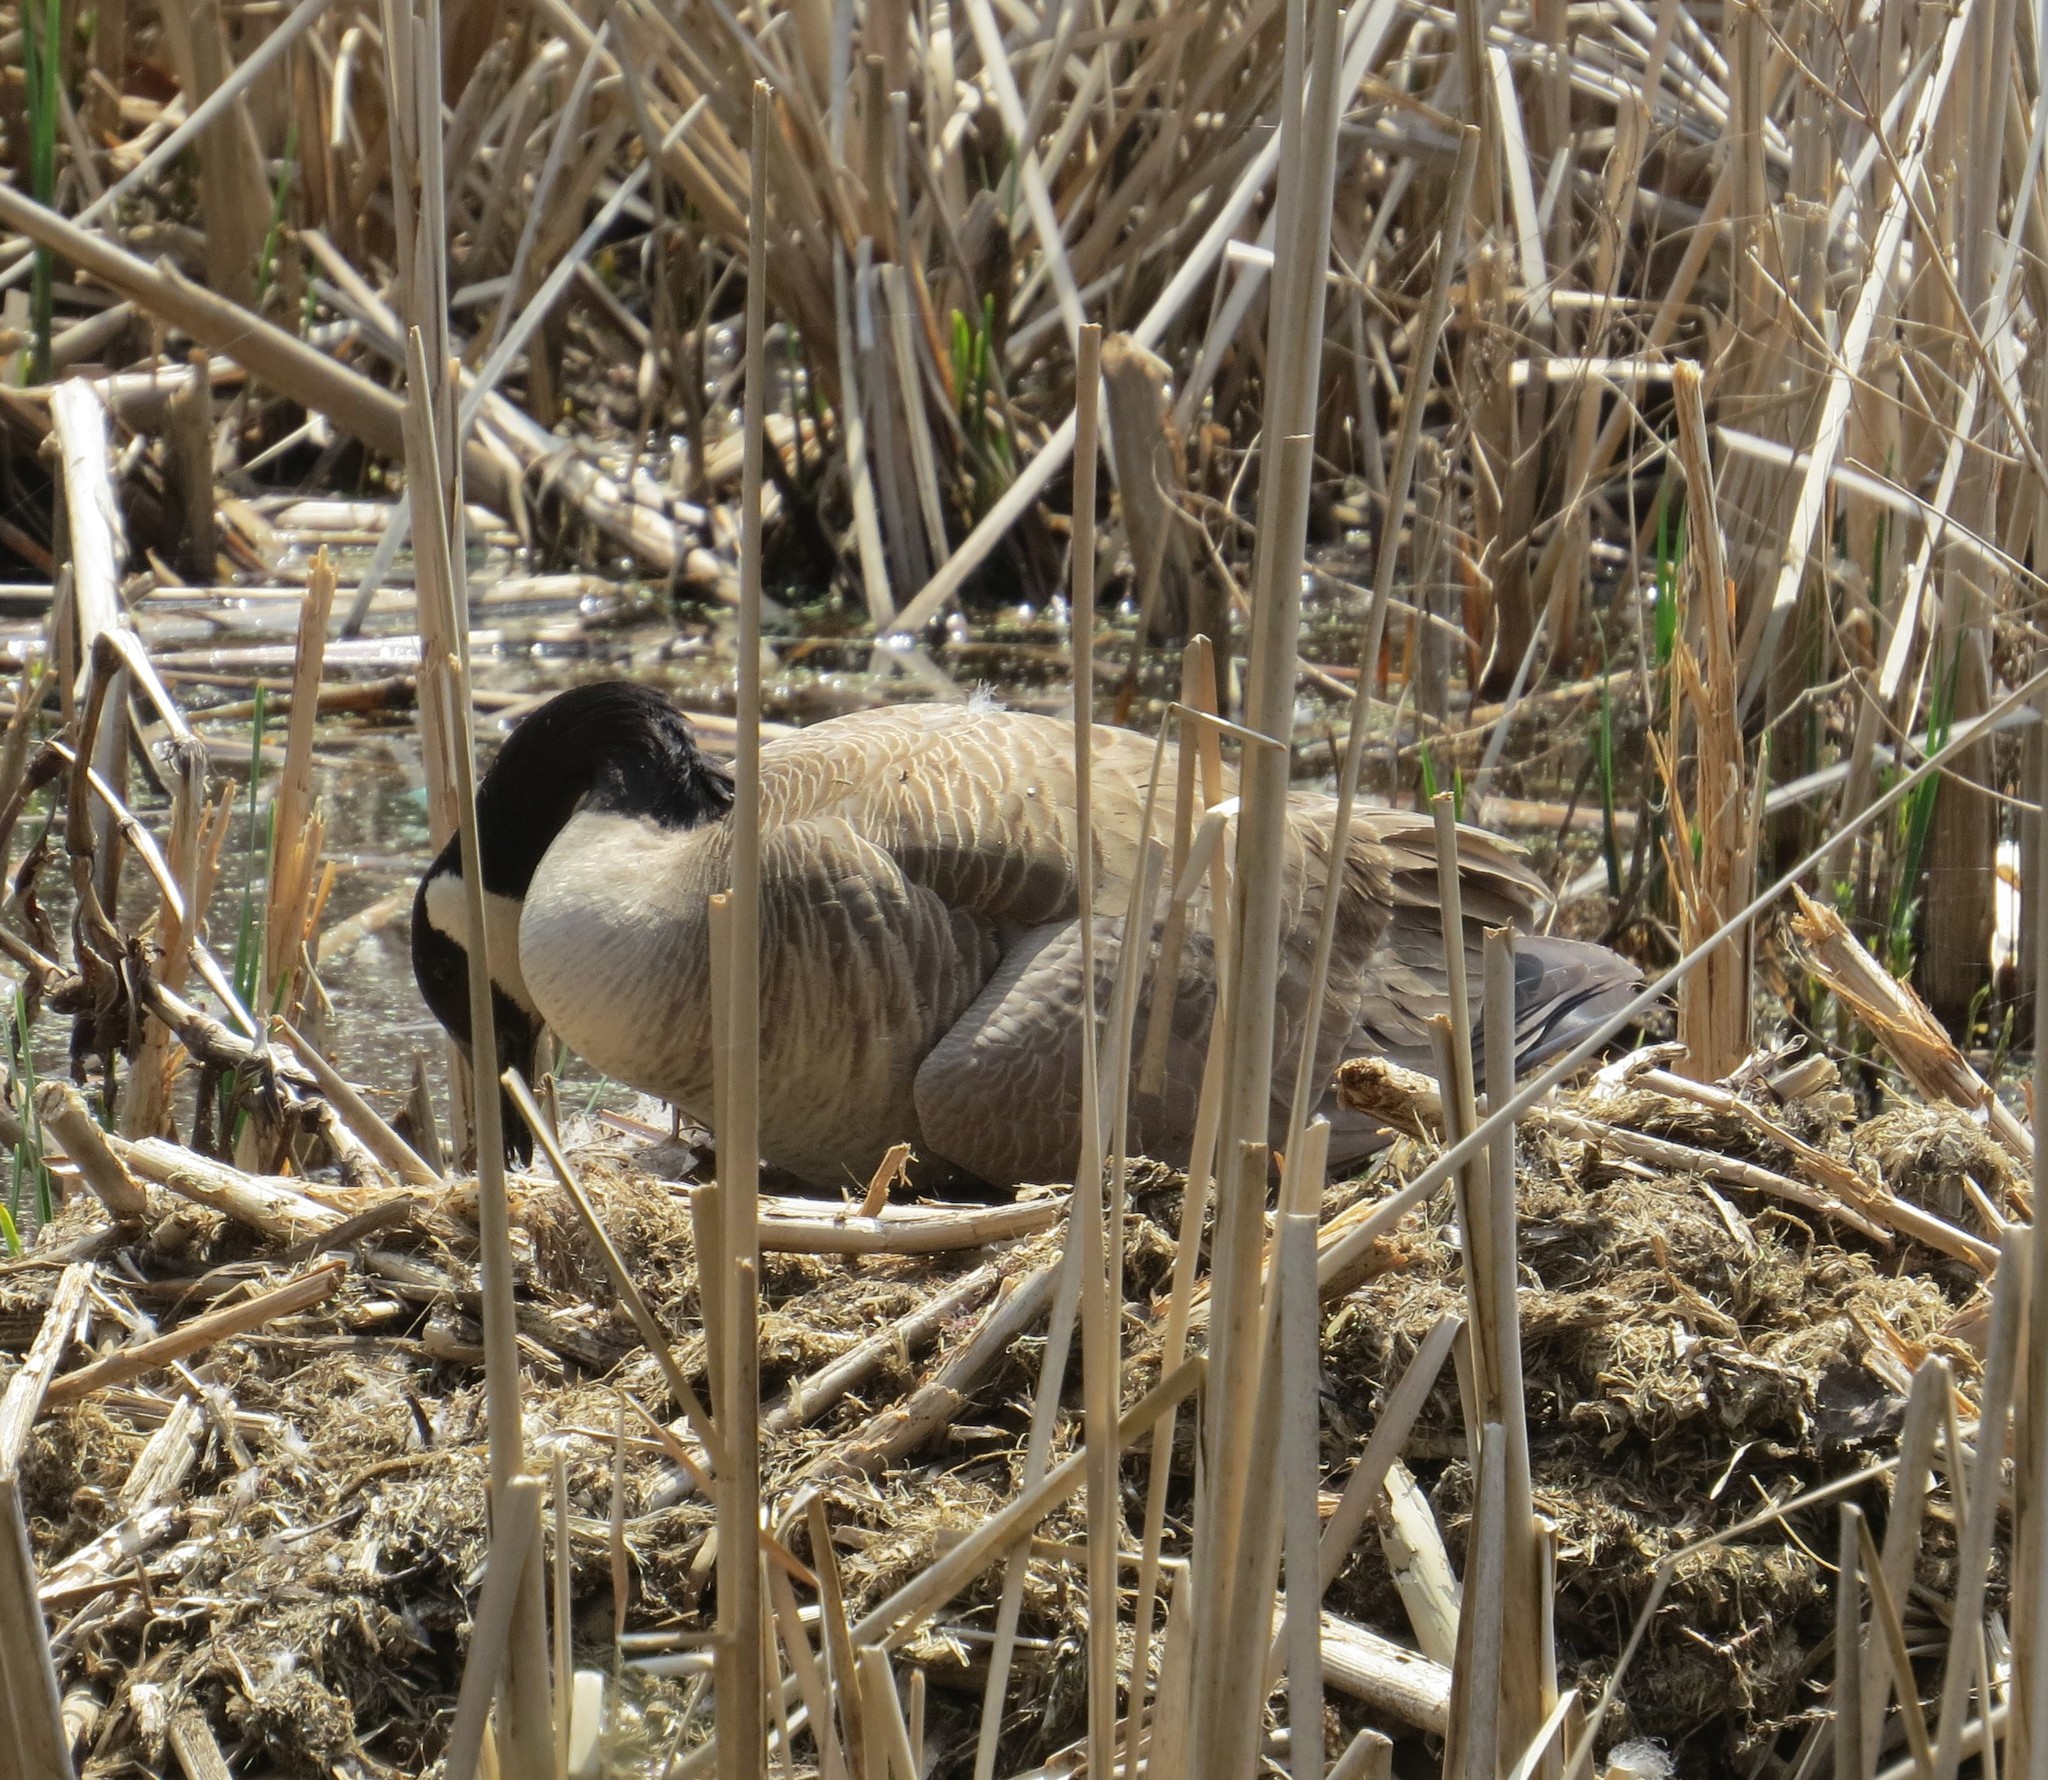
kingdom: Animalia
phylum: Chordata
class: Aves
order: Anseriformes
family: Anatidae
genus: Branta
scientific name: Branta canadensis
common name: Canada goose
